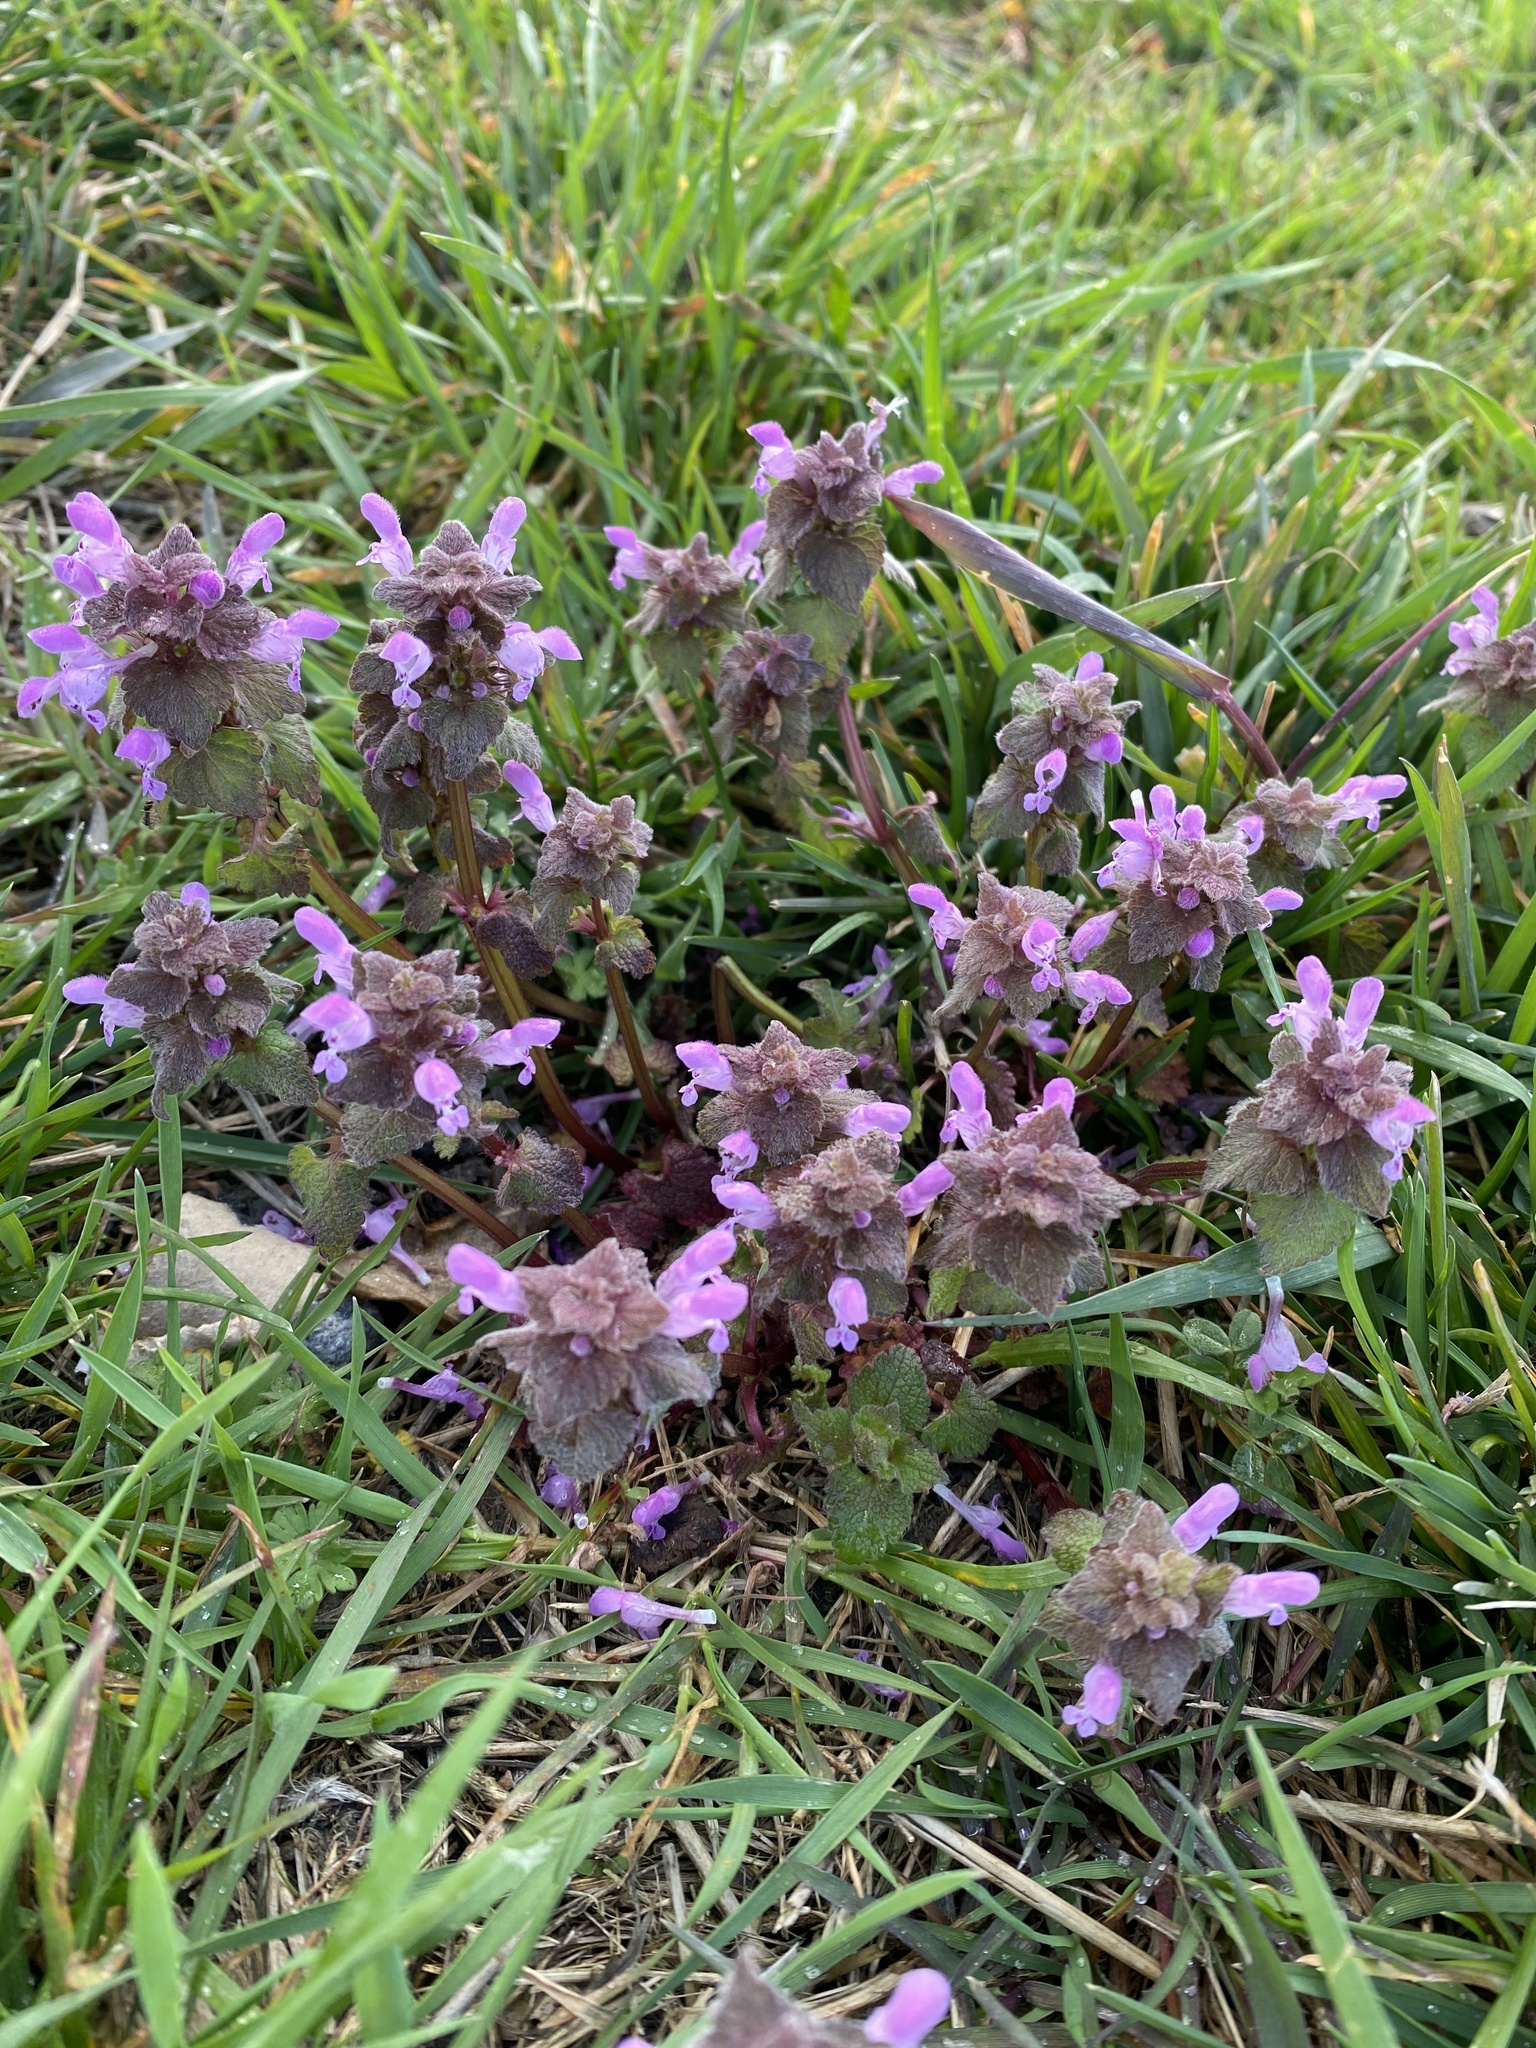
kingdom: Plantae
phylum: Tracheophyta
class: Magnoliopsida
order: Lamiales
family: Lamiaceae
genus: Lamium
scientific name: Lamium purpureum
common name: Red dead-nettle
